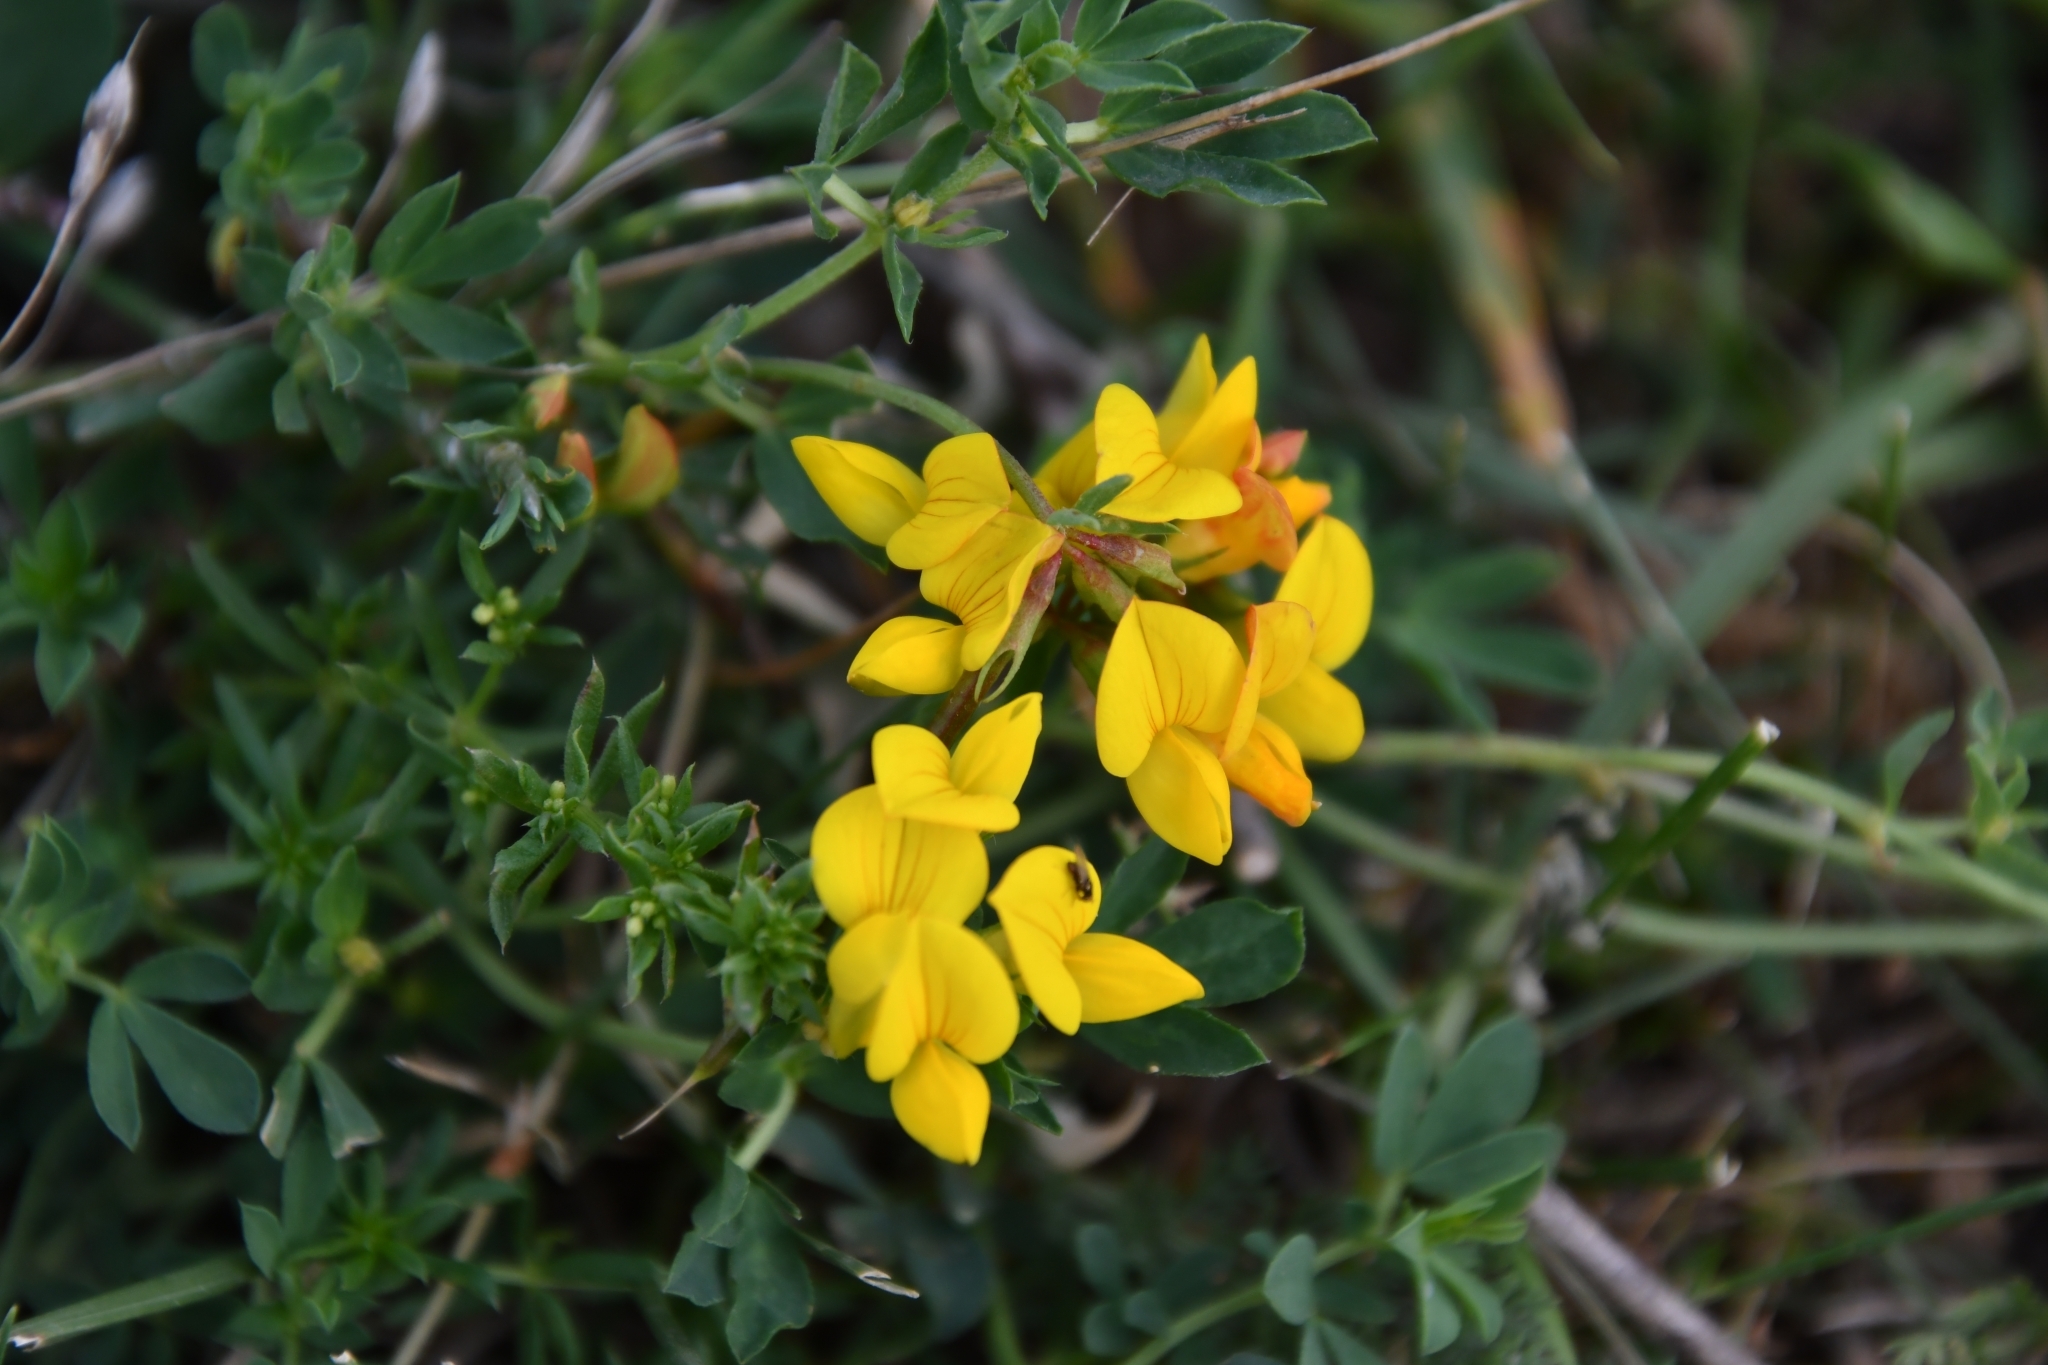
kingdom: Plantae
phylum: Tracheophyta
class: Magnoliopsida
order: Fabales
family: Fabaceae
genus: Lotus
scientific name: Lotus corniculatus
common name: Common bird's-foot-trefoil
